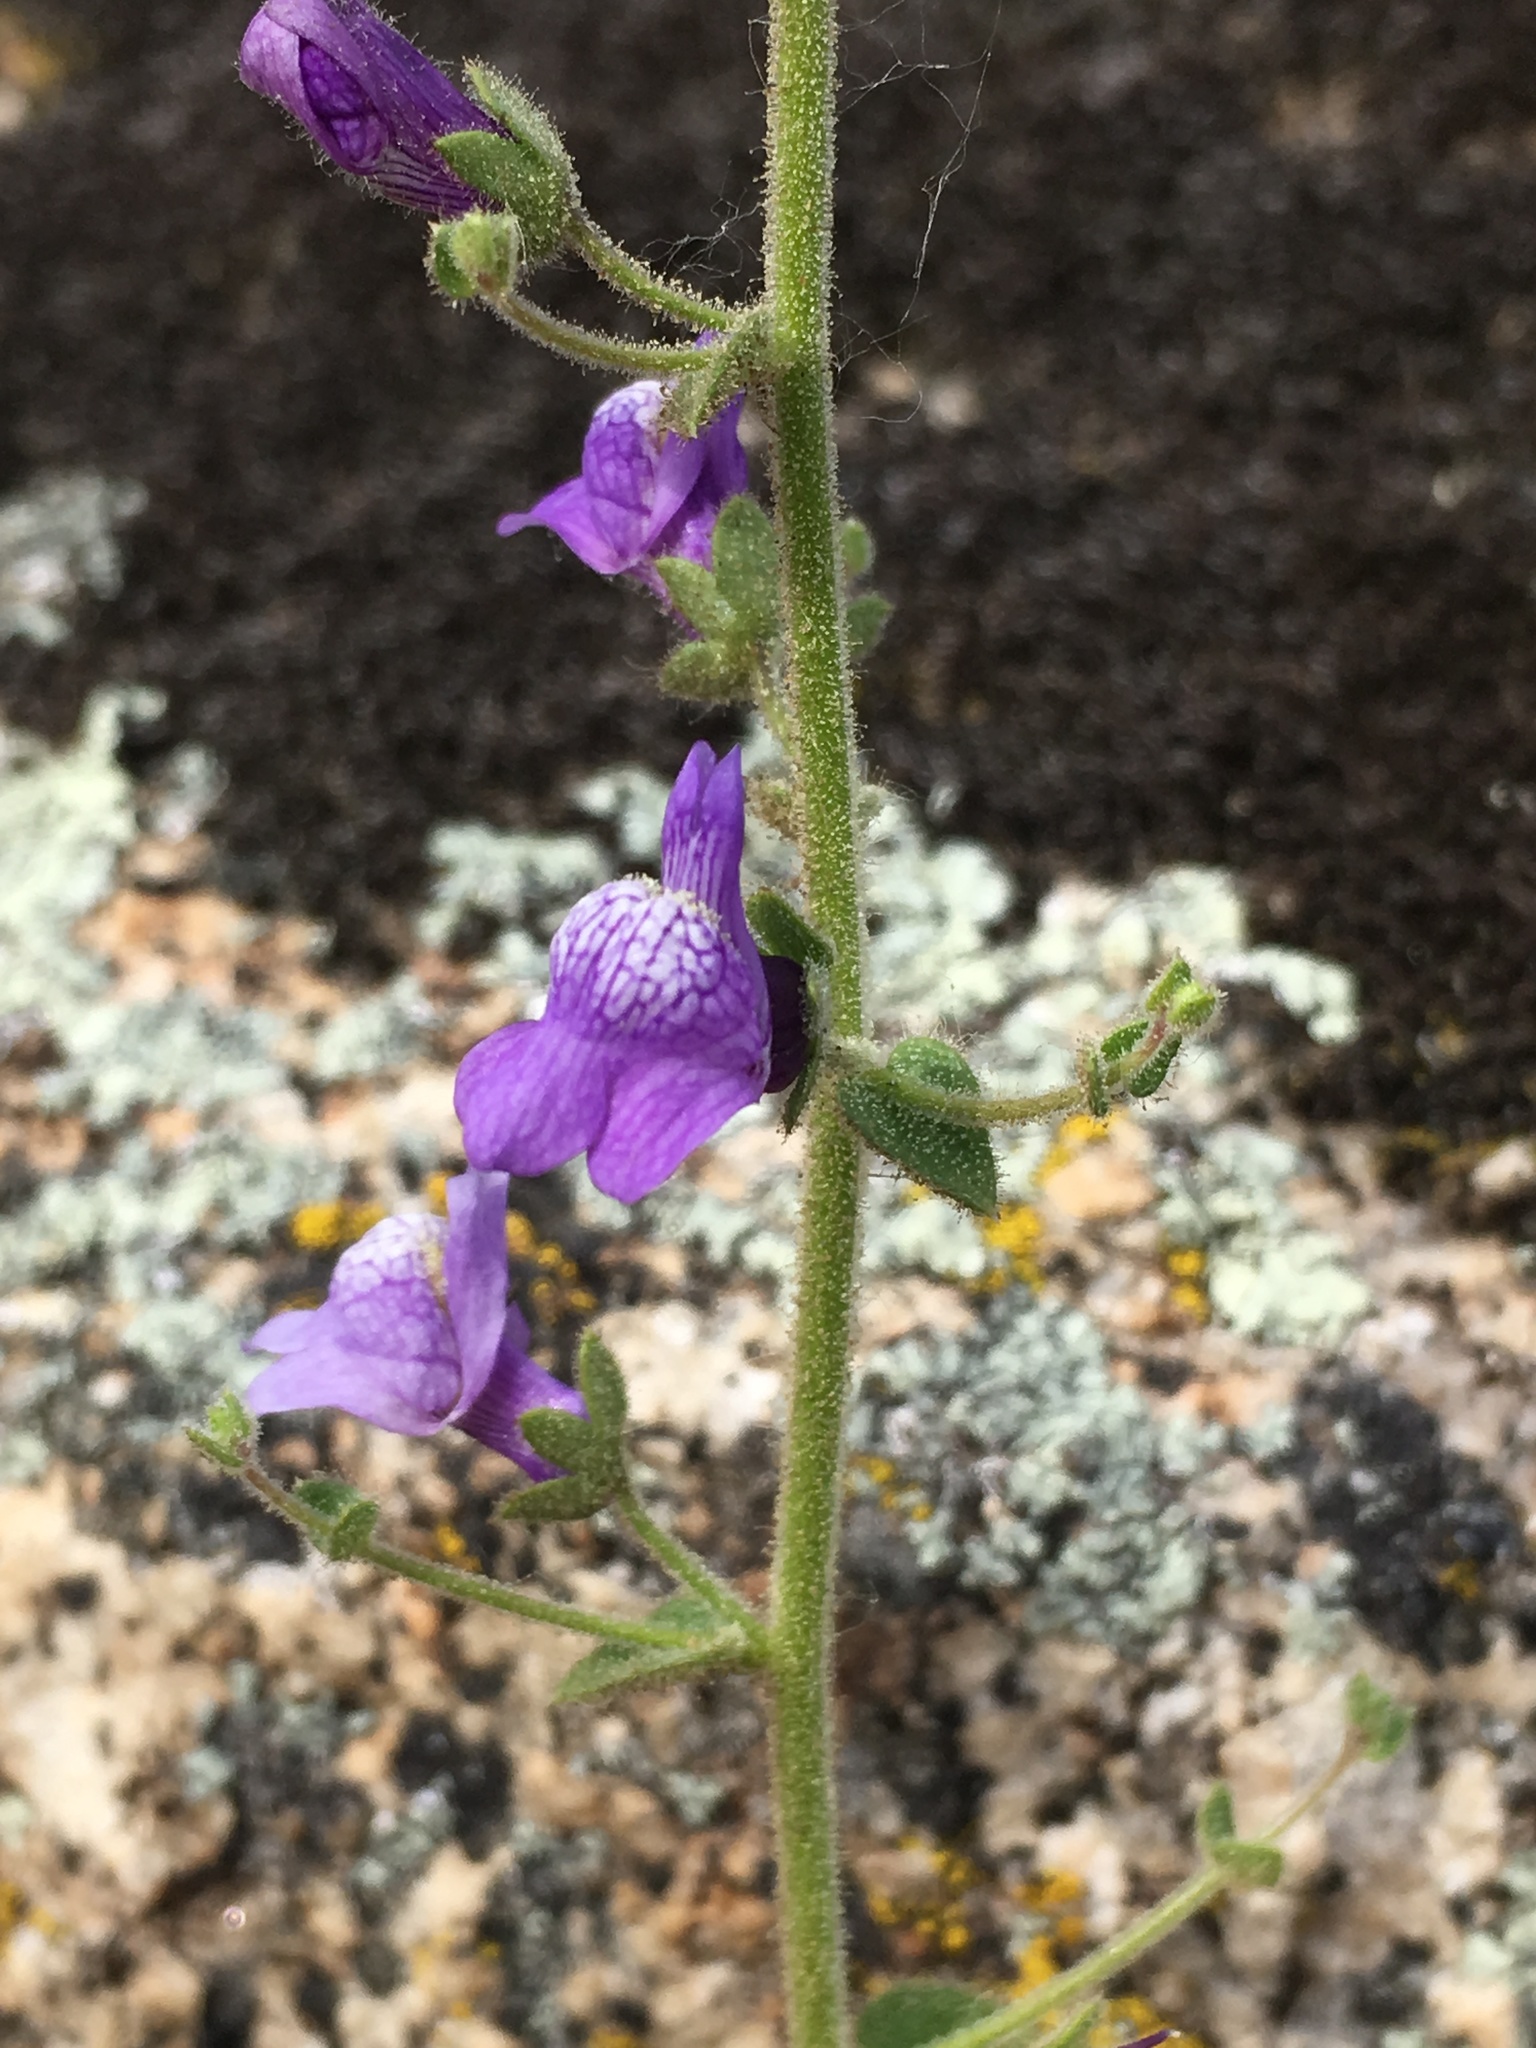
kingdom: Plantae
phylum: Tracheophyta
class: Magnoliopsida
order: Lamiales
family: Plantaginaceae
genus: Sairocarpus
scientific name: Sairocarpus nuttallianus
